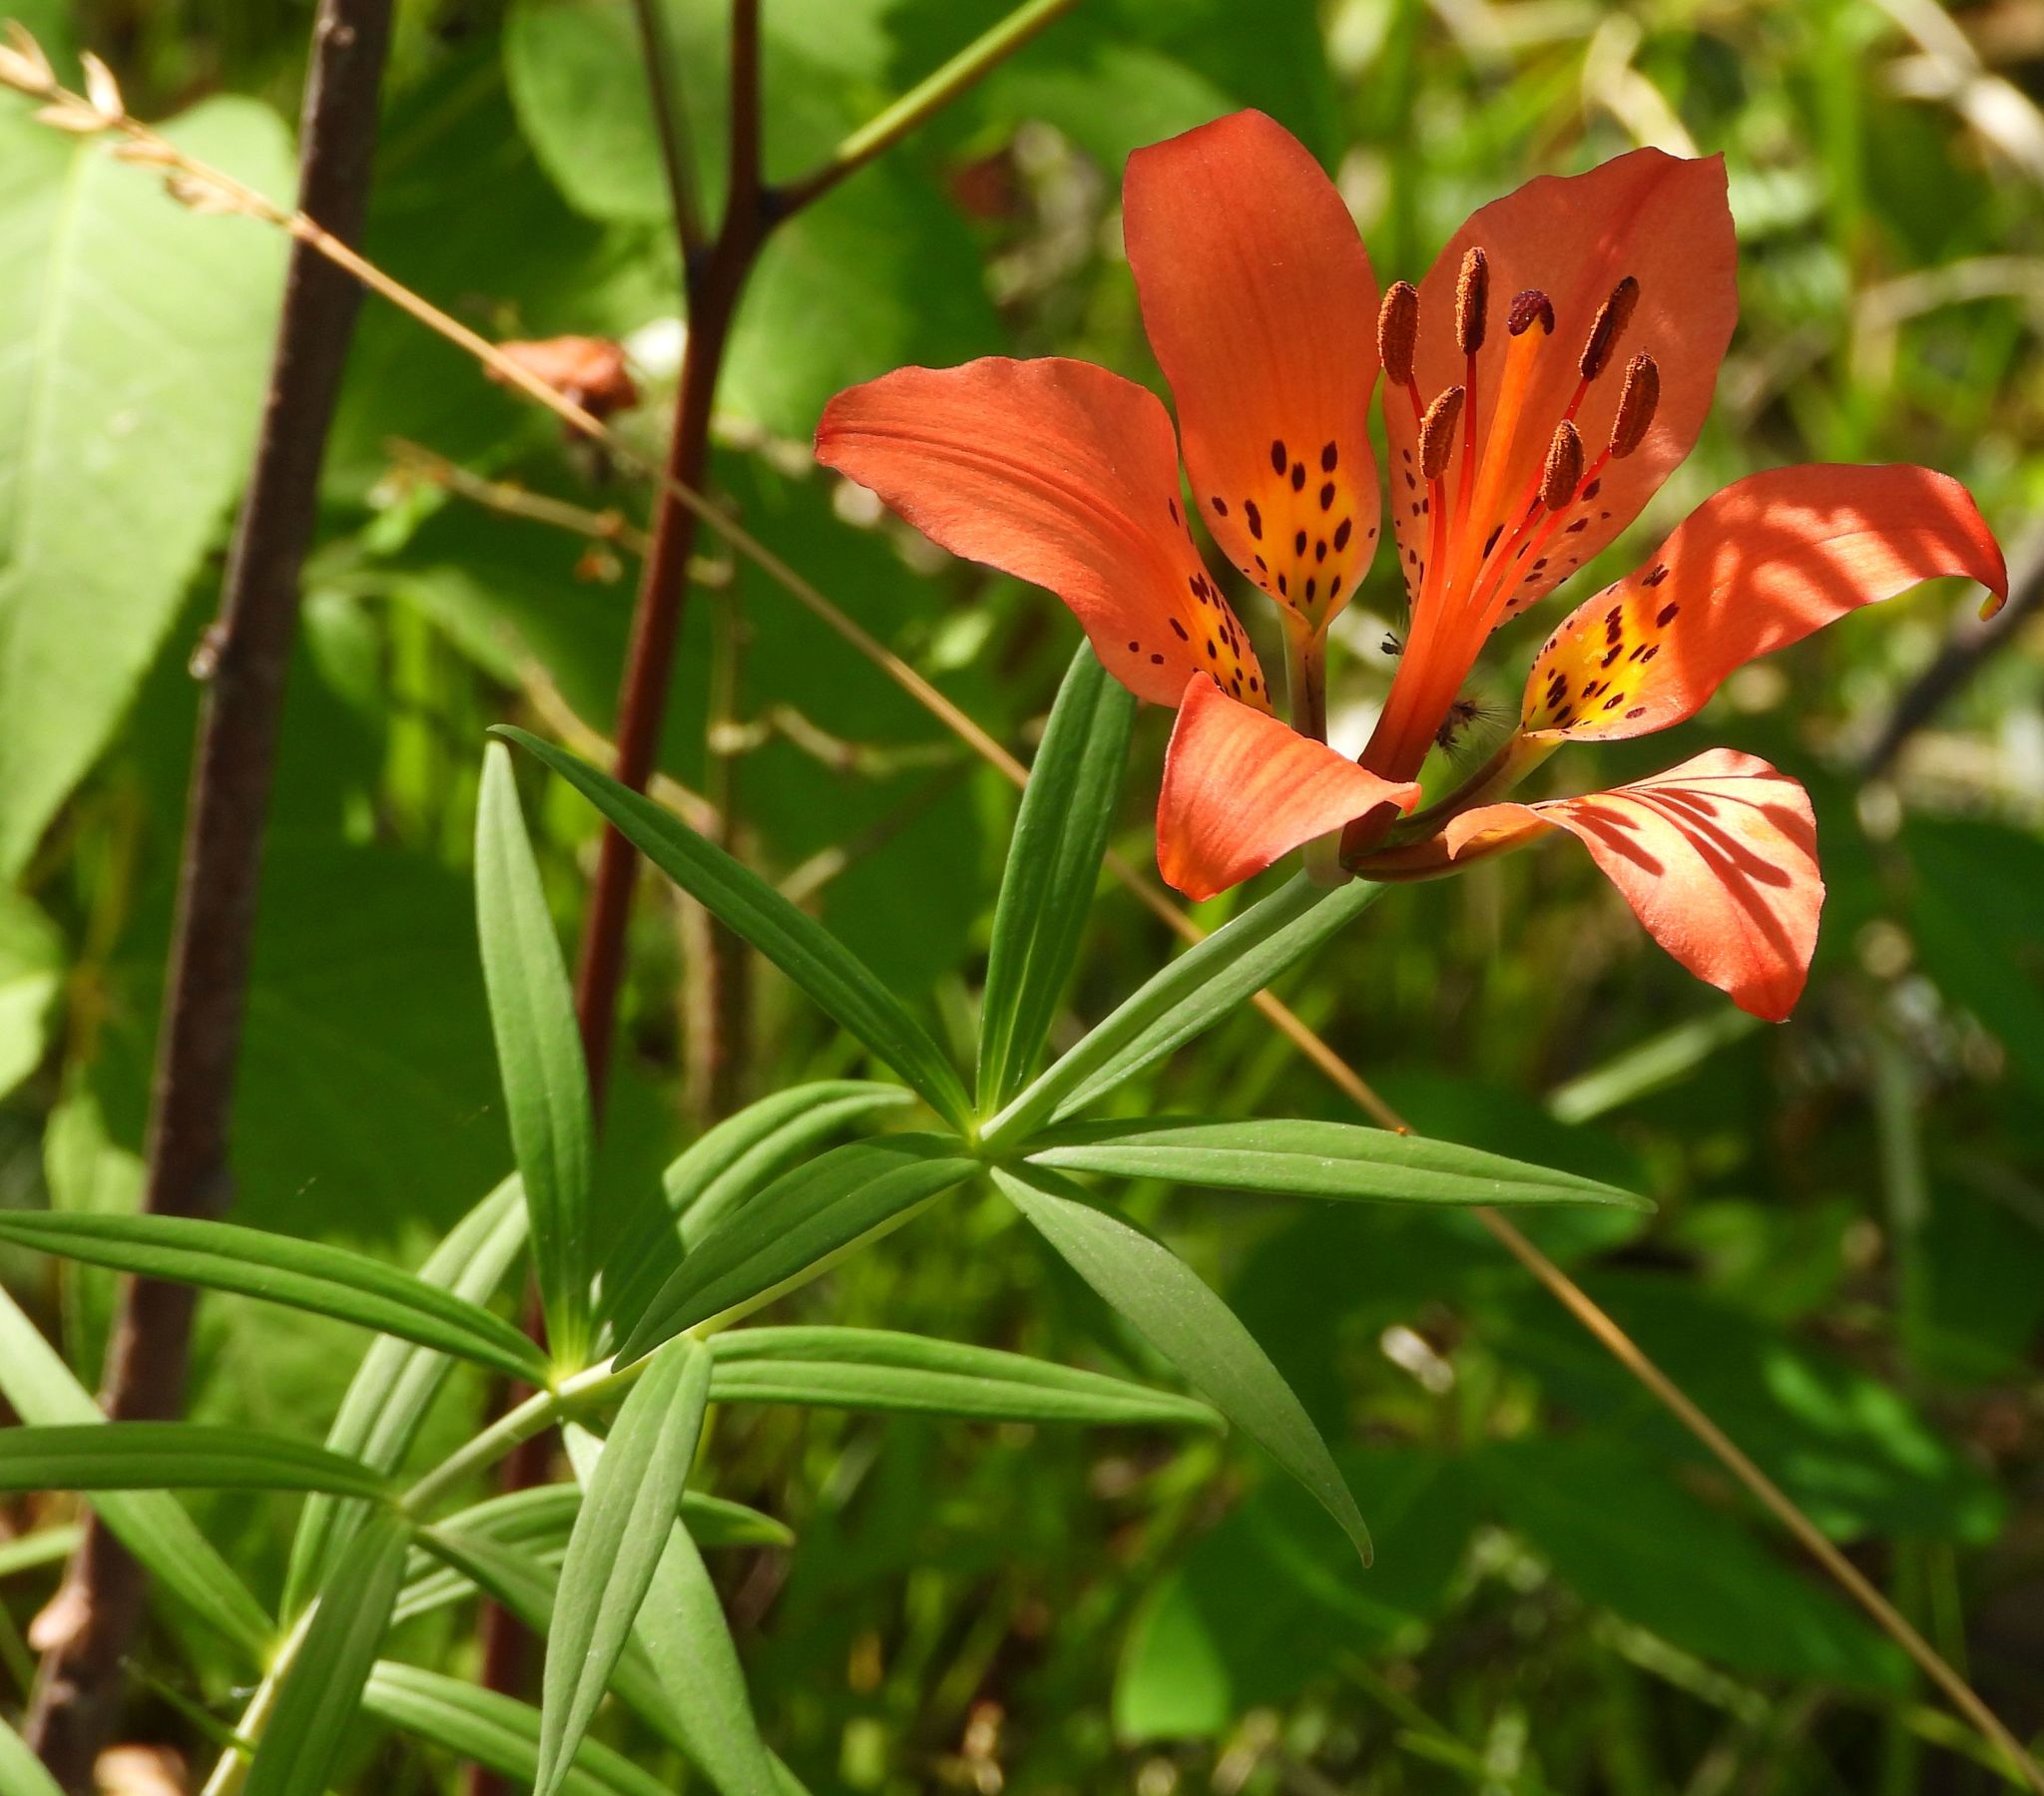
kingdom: Plantae
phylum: Tracheophyta
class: Liliopsida
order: Liliales
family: Liliaceae
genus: Lilium
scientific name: Lilium philadelphicum
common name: Red lily
